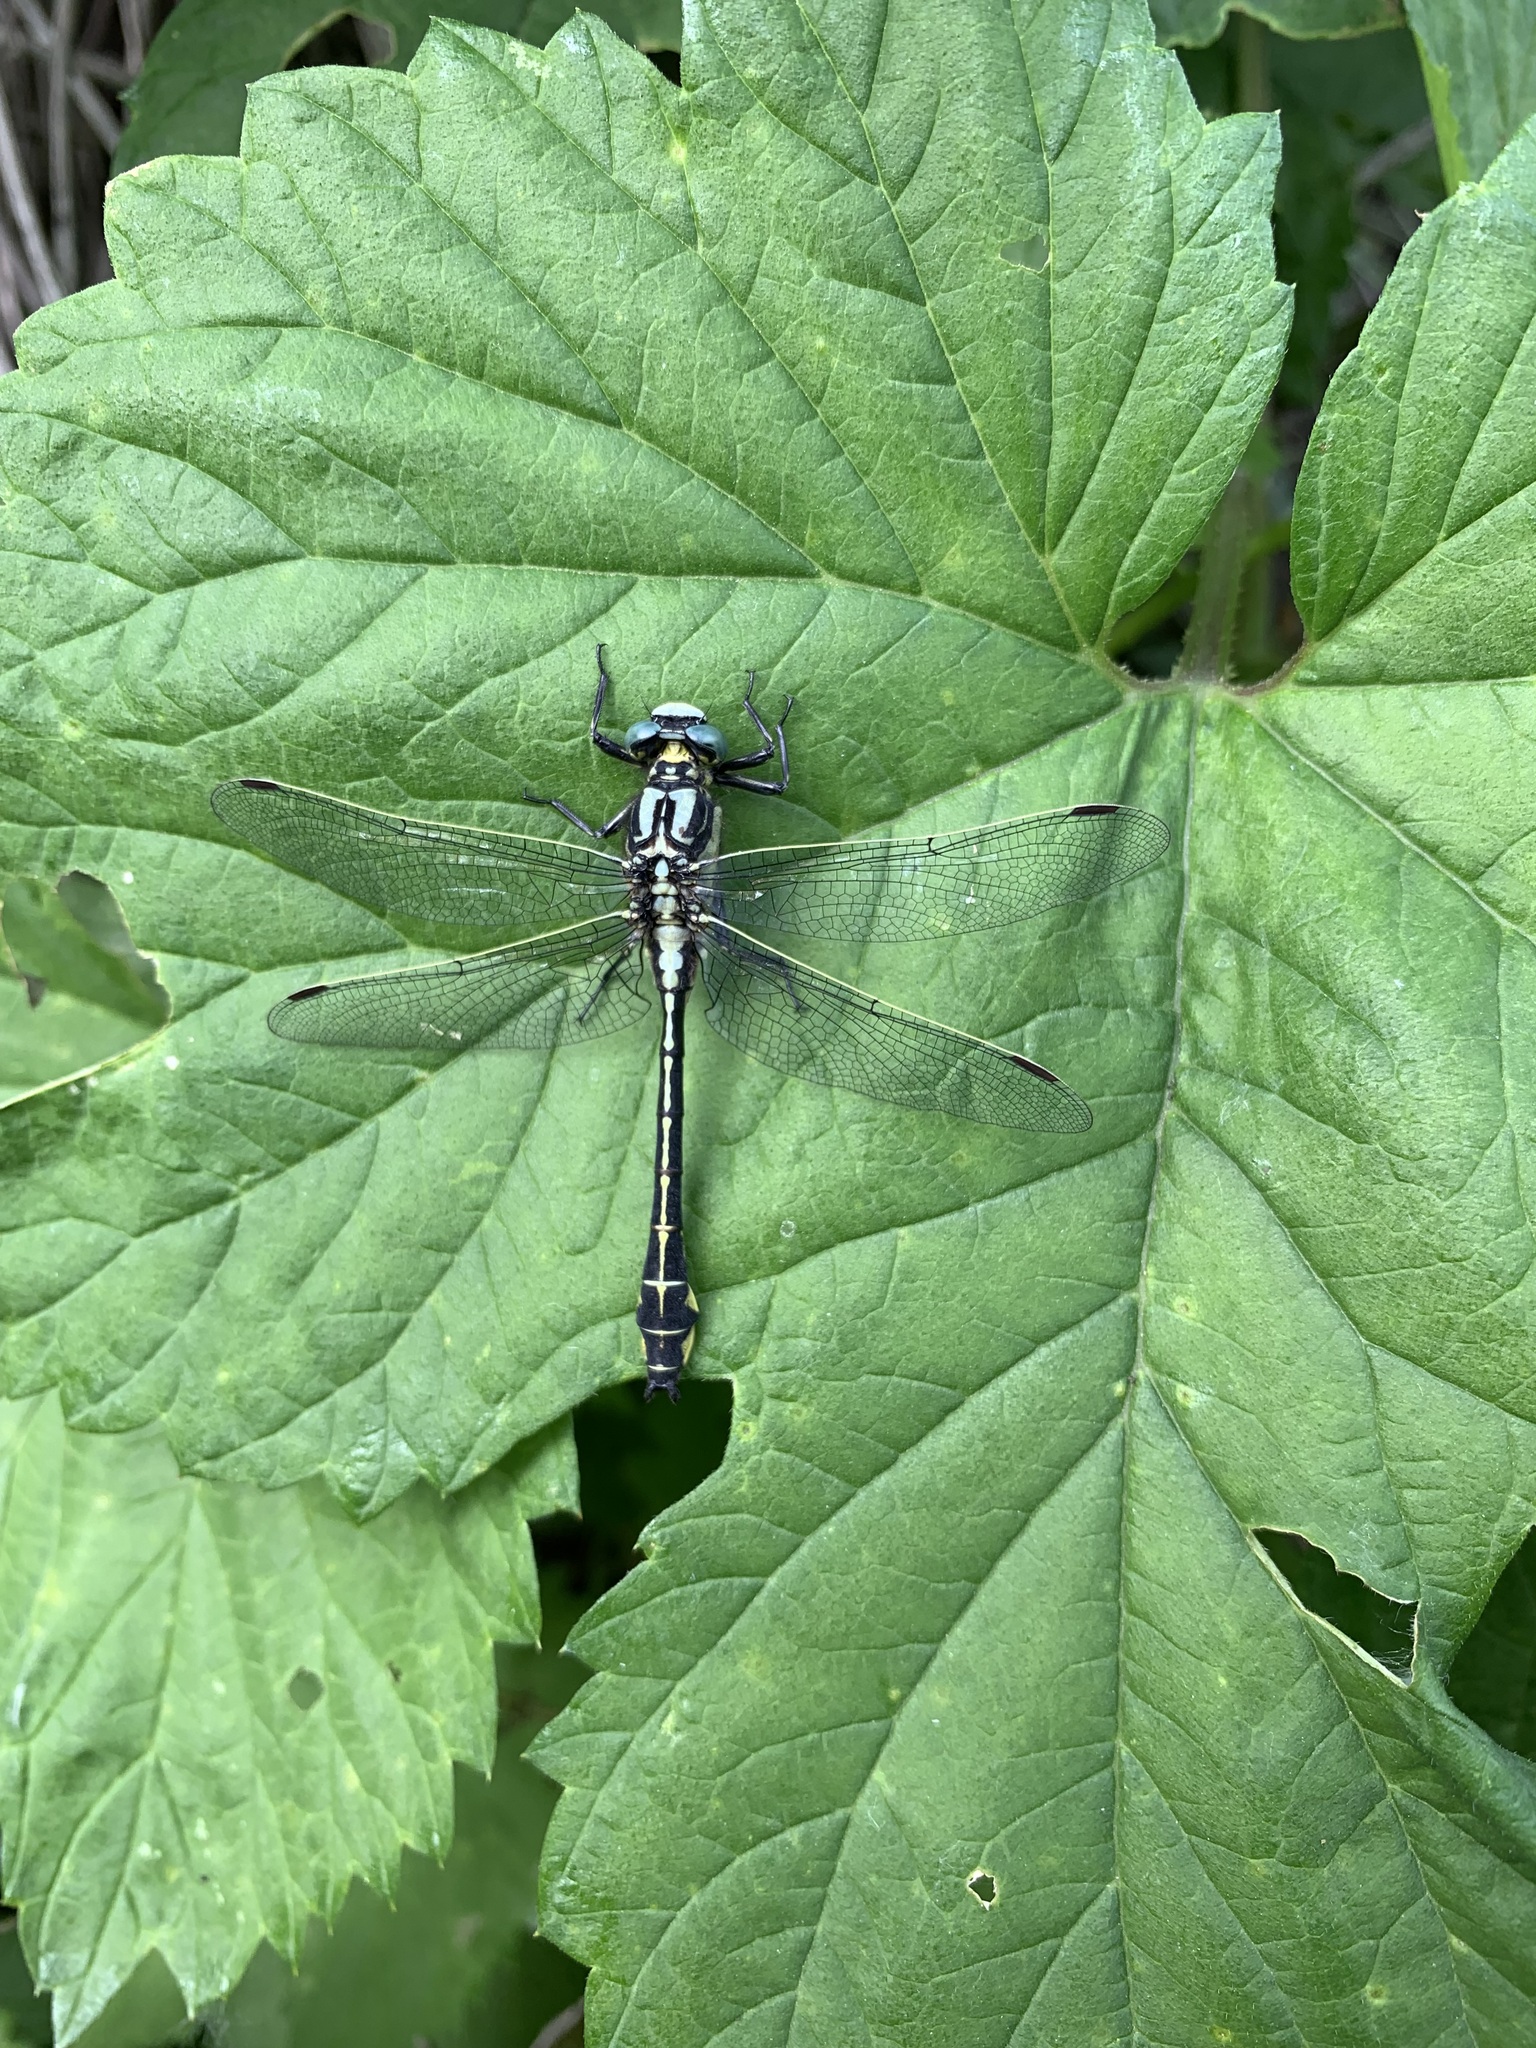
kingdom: Animalia
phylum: Arthropoda
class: Insecta
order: Odonata
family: Gomphidae
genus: Gomphus
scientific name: Gomphus schneiderii
